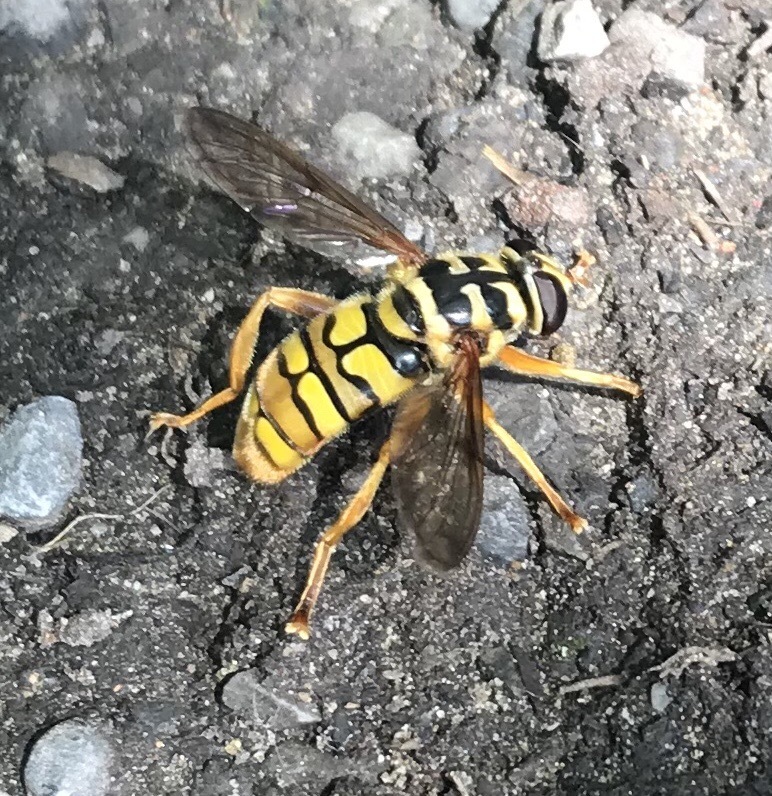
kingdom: Animalia
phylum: Arthropoda
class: Insecta
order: Diptera
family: Syrphidae
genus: Milesia
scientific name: Milesia virginiensis
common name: Virginia giant
